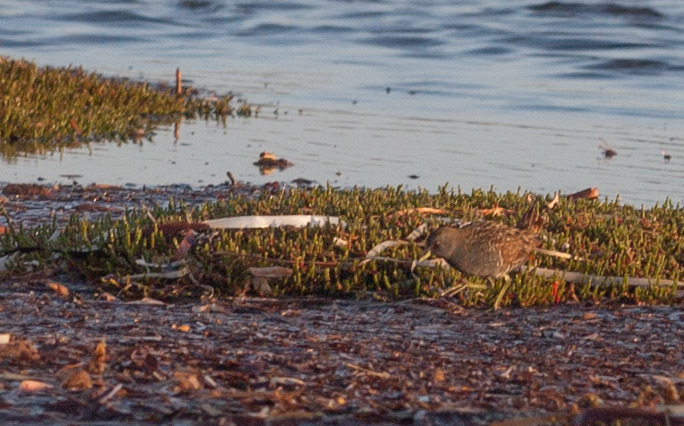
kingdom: Animalia
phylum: Chordata
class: Aves
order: Gruiformes
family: Rallidae
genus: Porzana
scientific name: Porzana fluminea
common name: Australian crake
